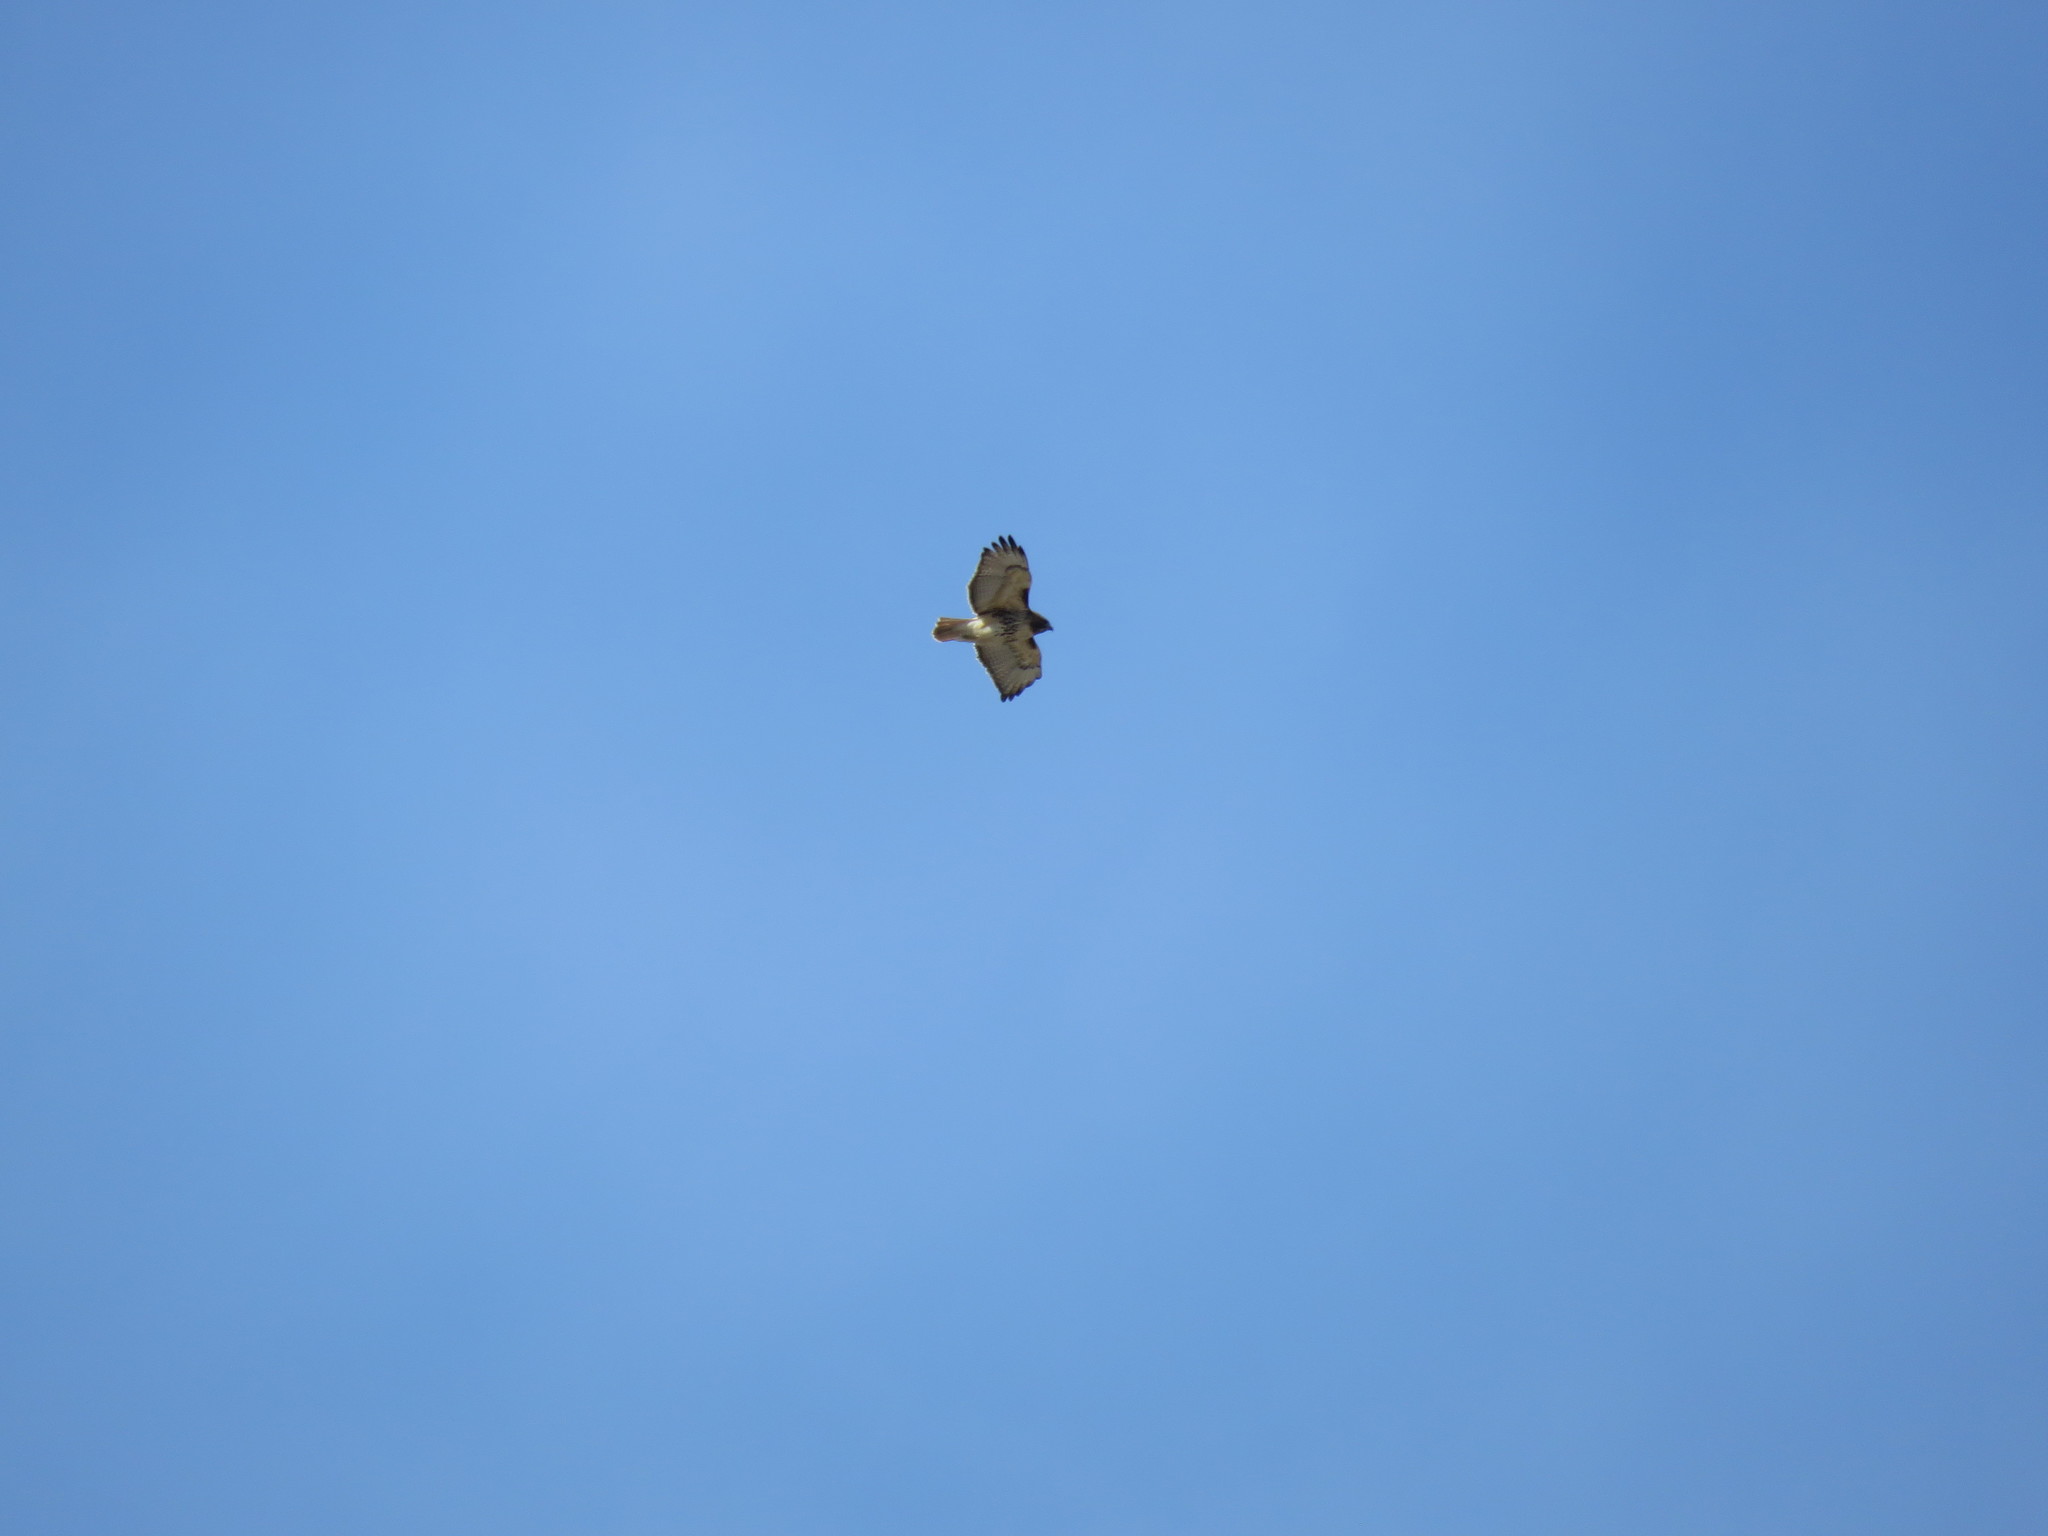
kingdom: Animalia
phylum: Chordata
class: Aves
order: Accipitriformes
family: Accipitridae
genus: Buteo
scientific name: Buteo jamaicensis
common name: Red-tailed hawk
